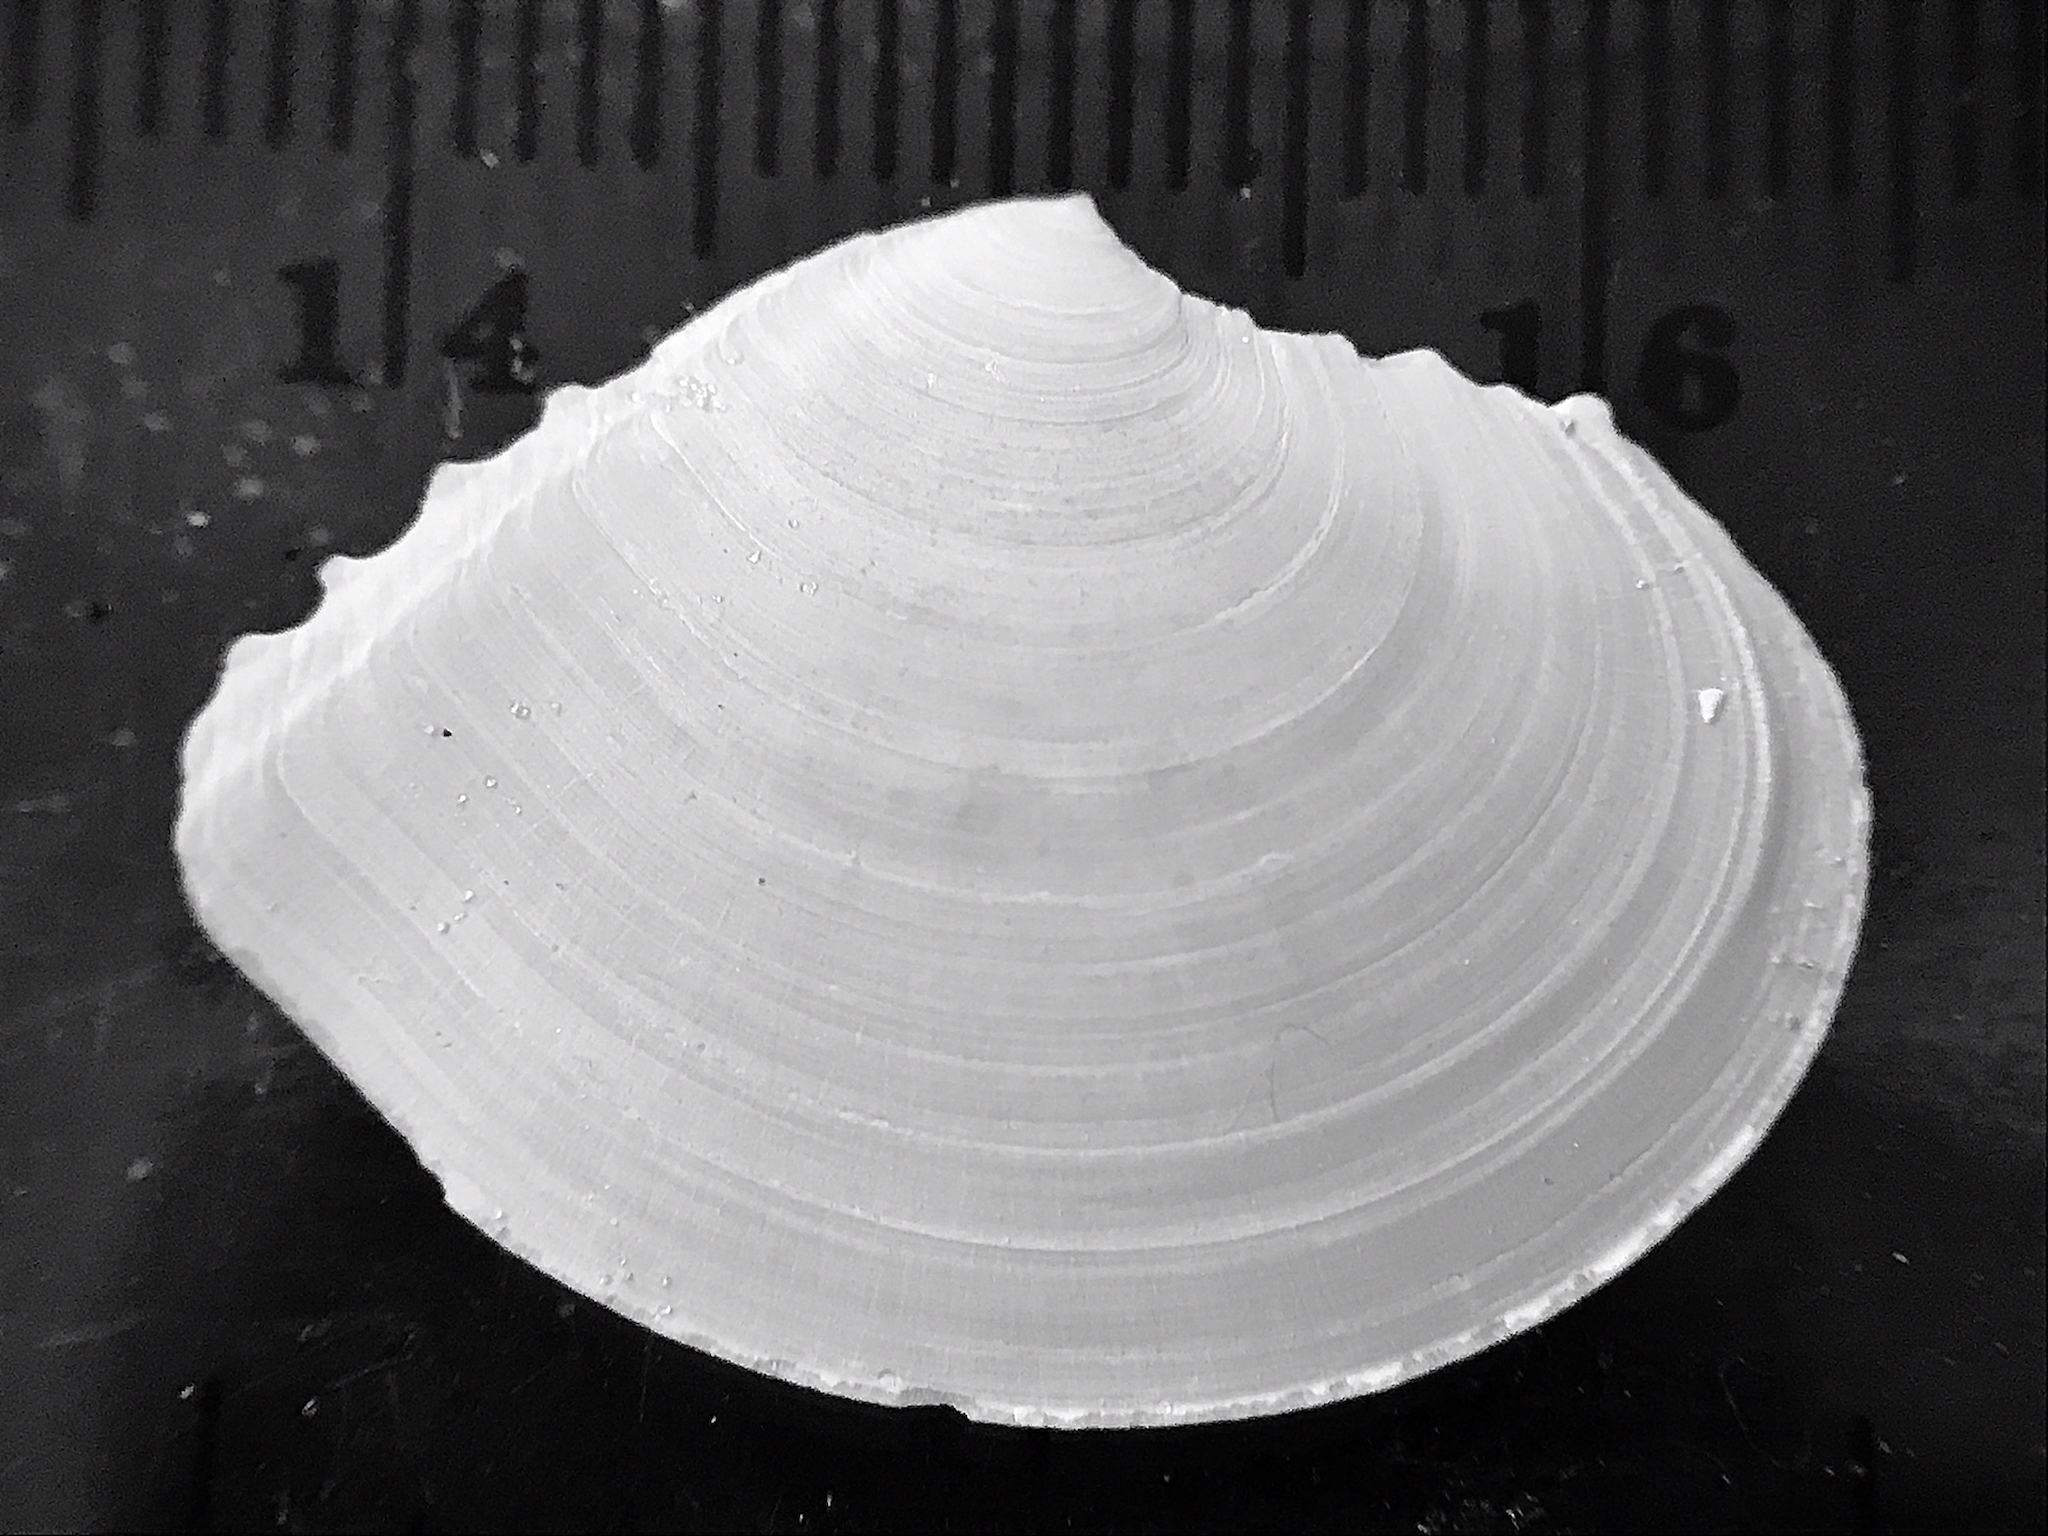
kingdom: Animalia
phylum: Mollusca
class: Bivalvia
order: Cardiida
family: Tellinidae
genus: Tellidora
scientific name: Tellidora cristata
